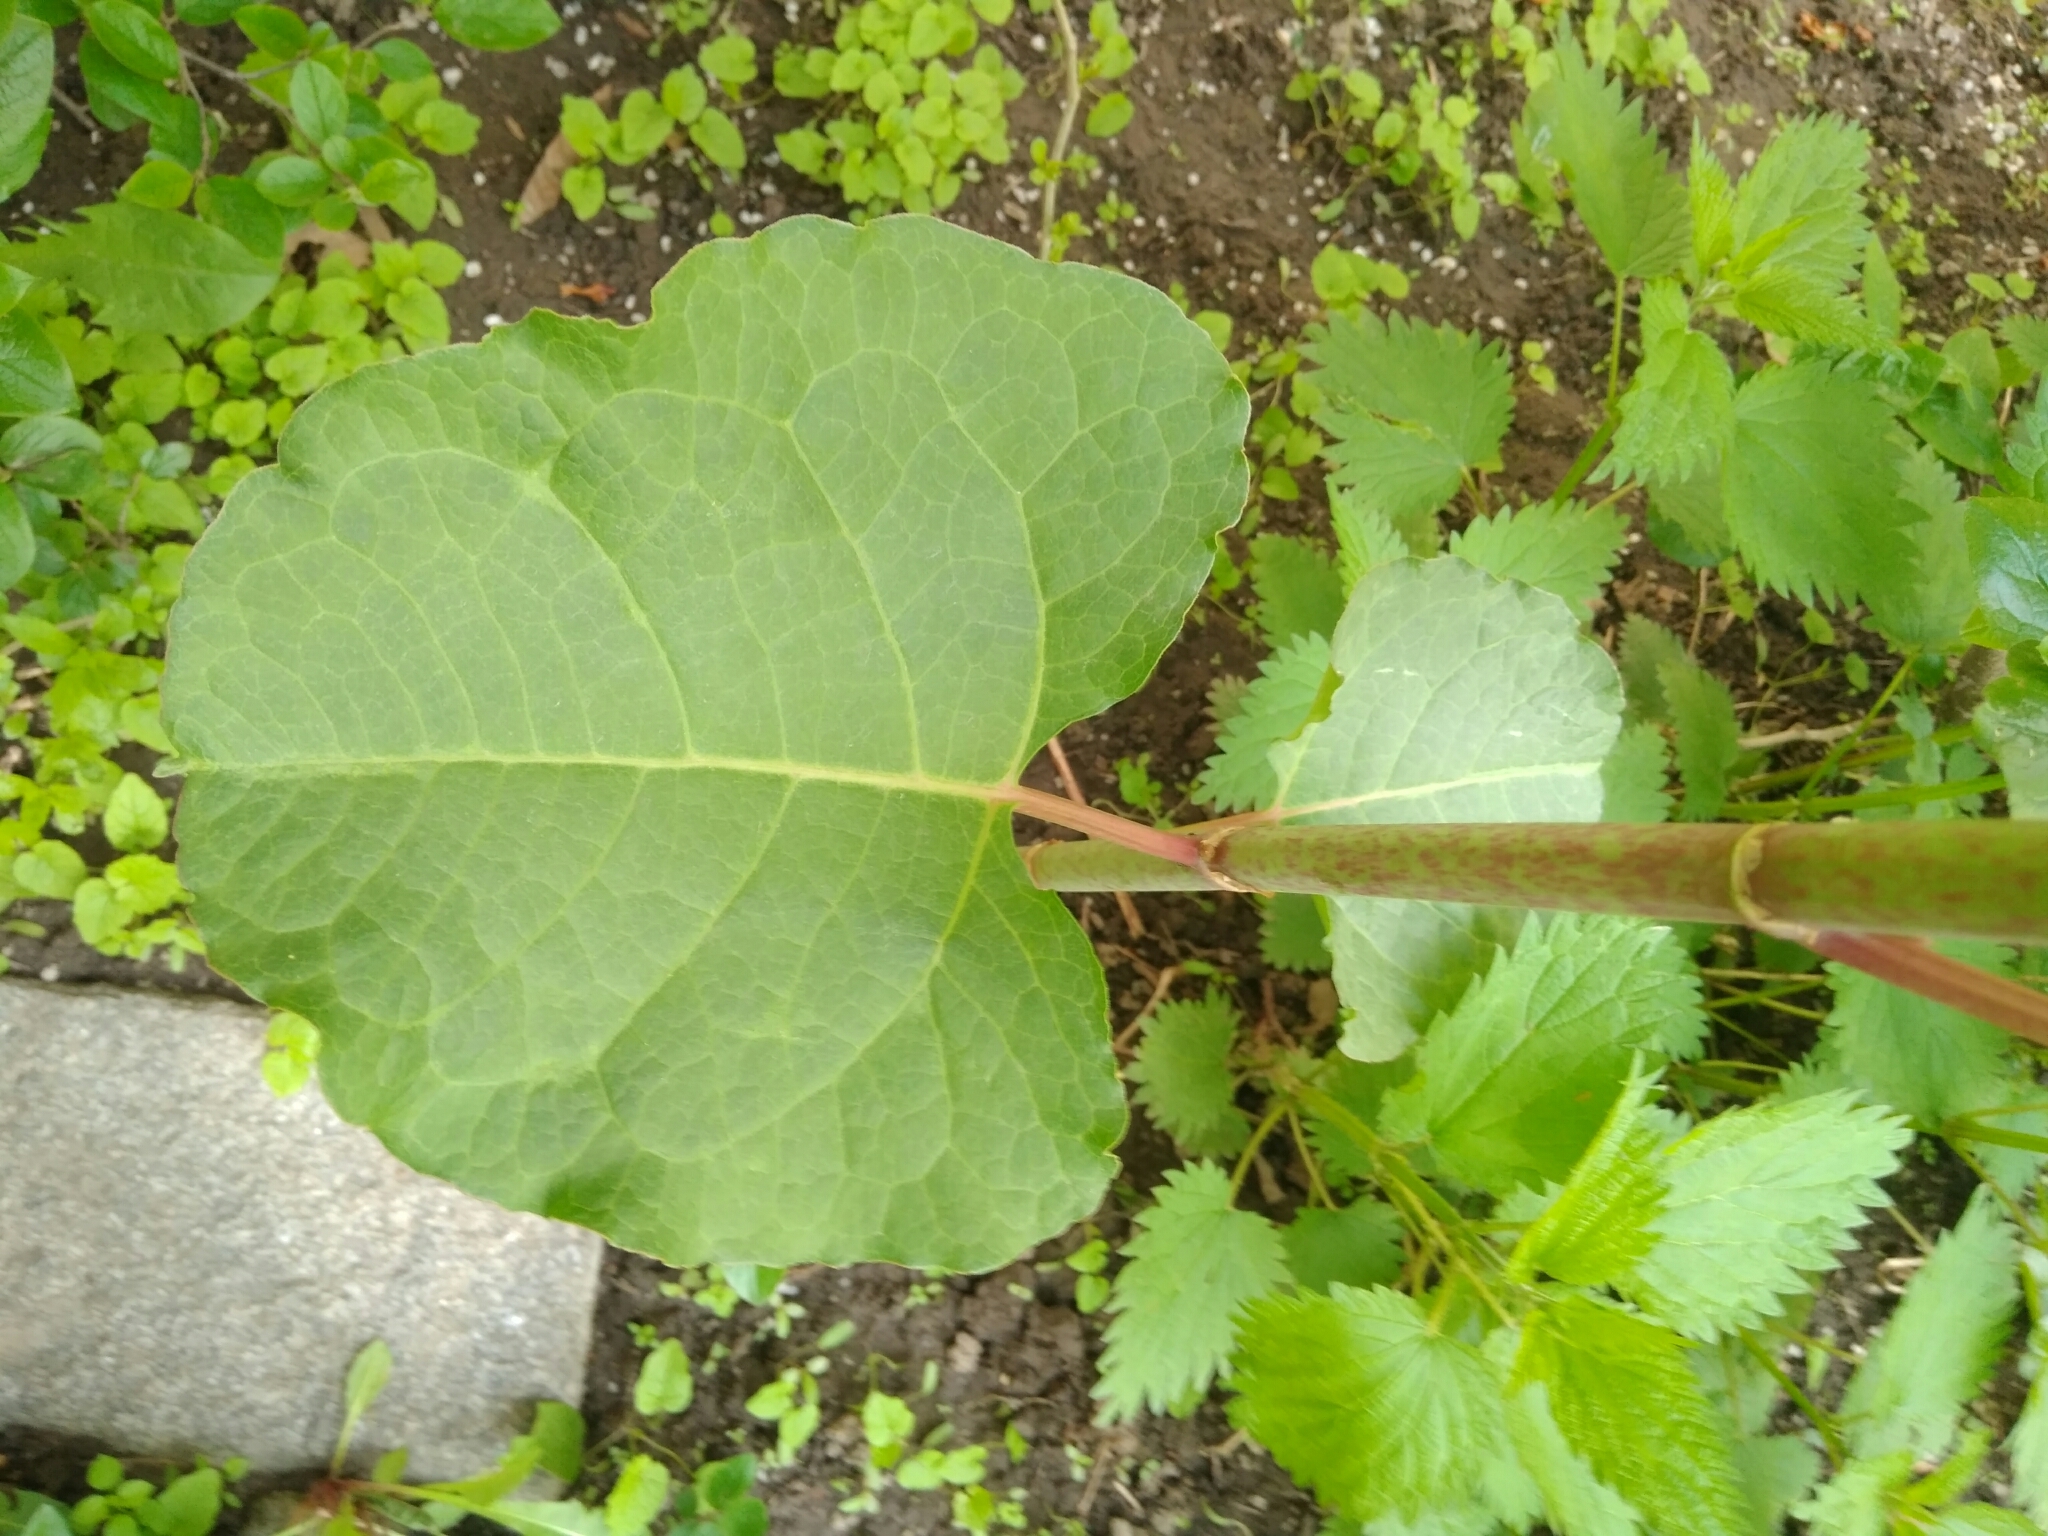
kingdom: Plantae
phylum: Tracheophyta
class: Magnoliopsida
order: Caryophyllales
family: Polygonaceae
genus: Reynoutria
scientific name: Reynoutria bohemica
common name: Bohemian knotweed
